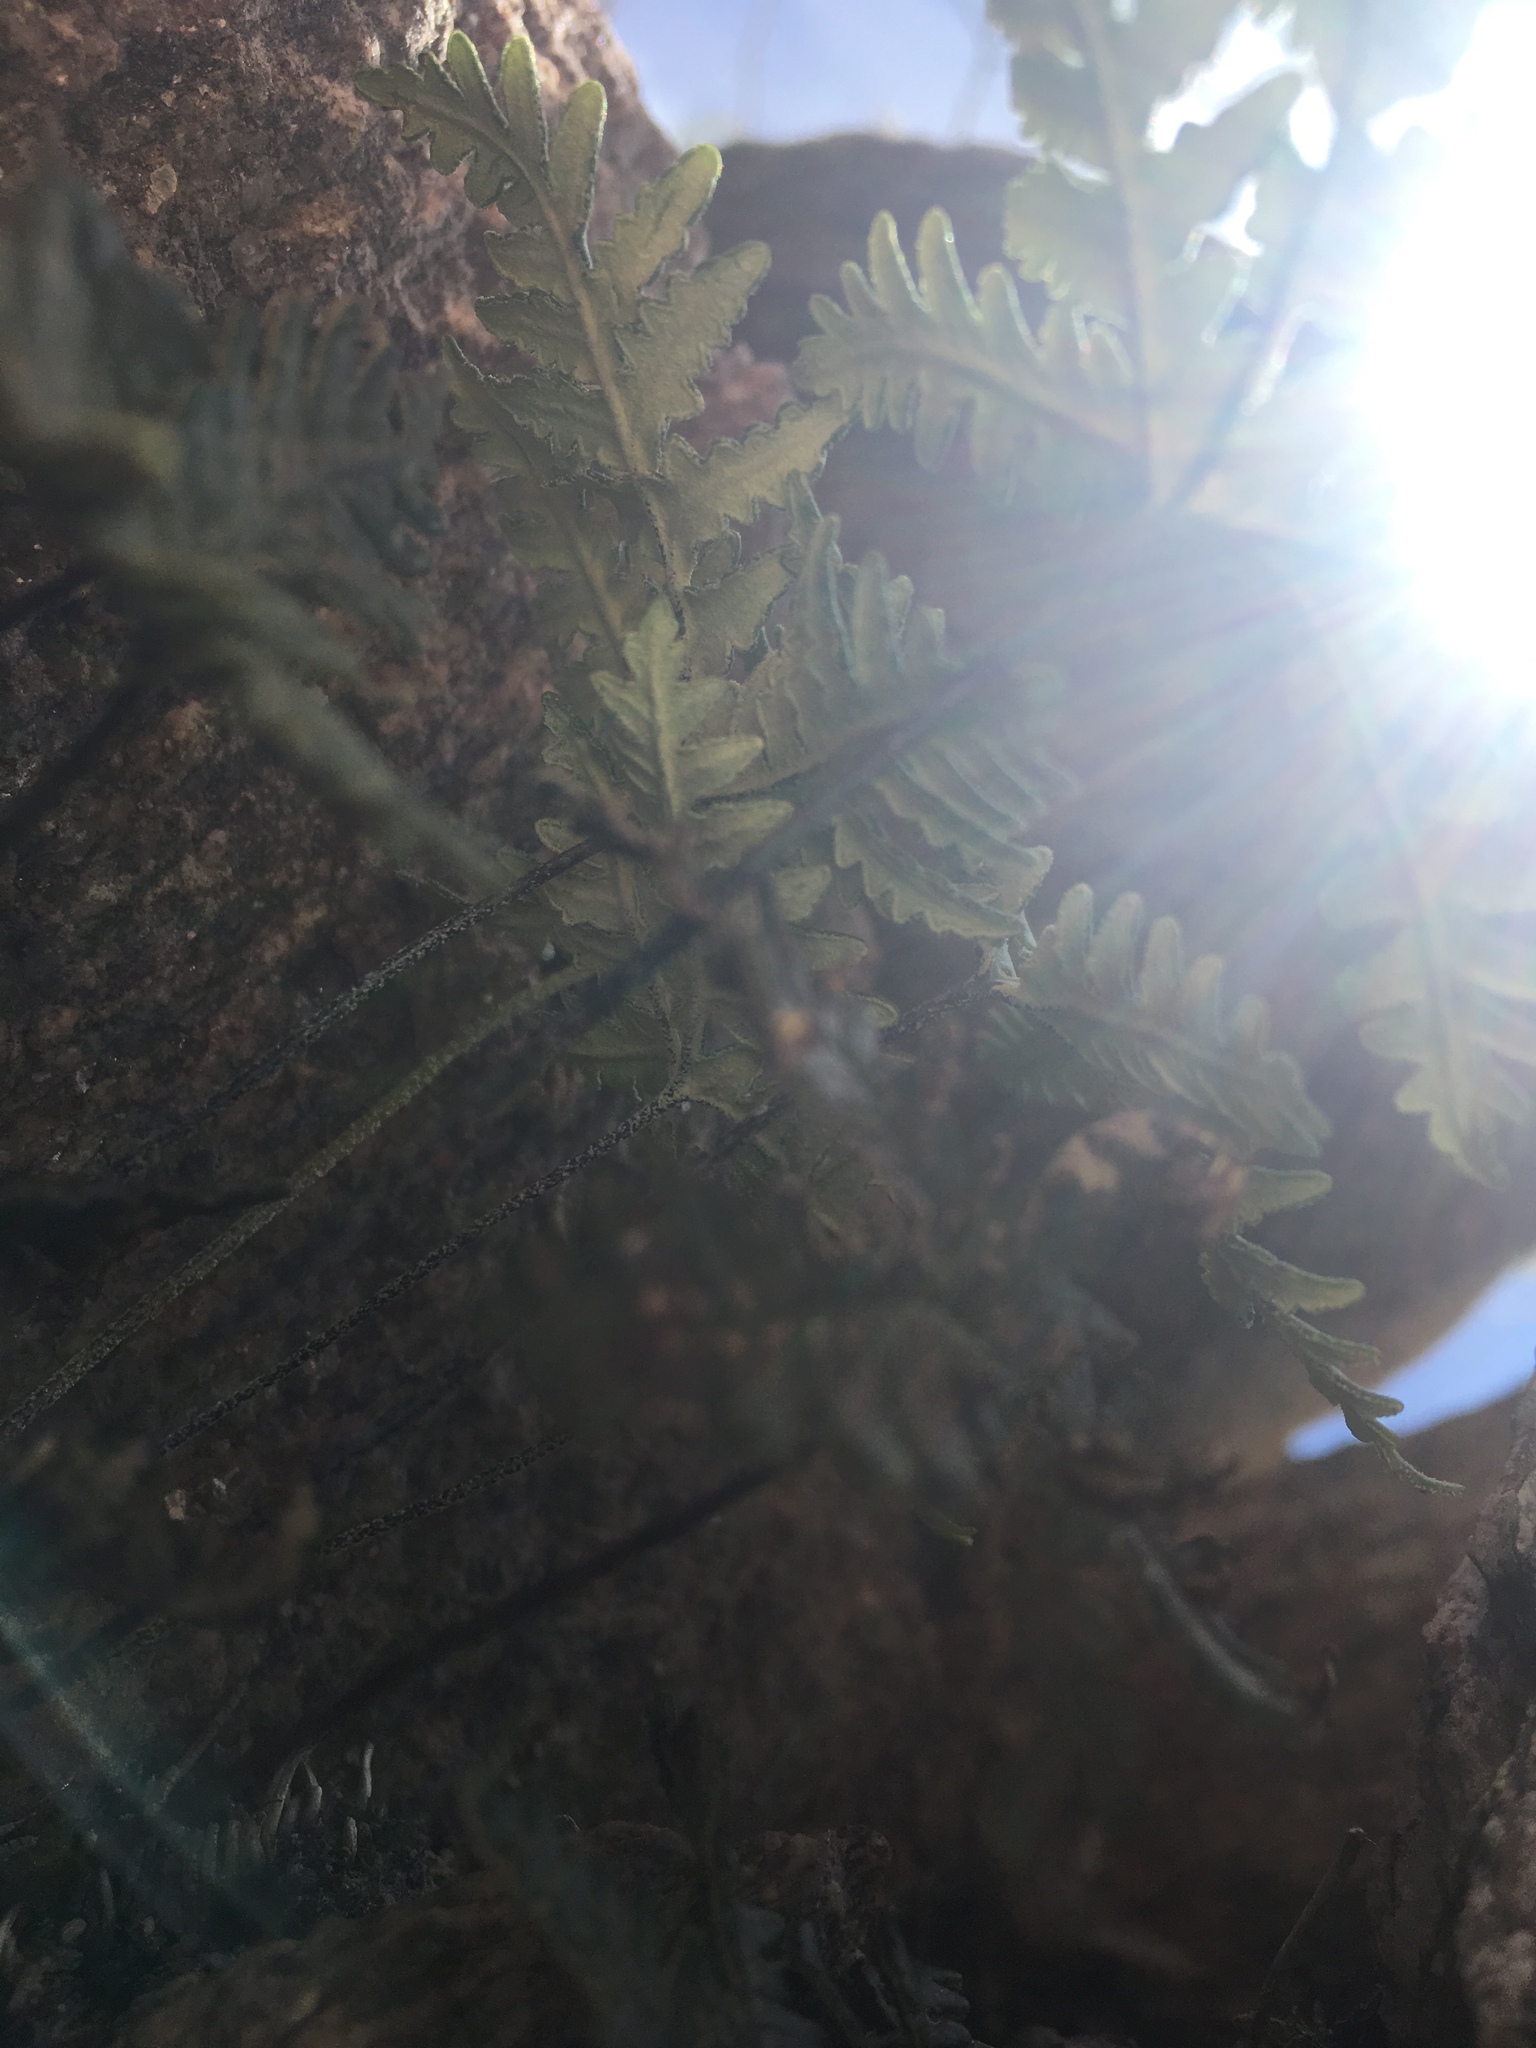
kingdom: Plantae
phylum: Tracheophyta
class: Polypodiopsida
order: Polypodiales
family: Pteridaceae
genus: Notholaena
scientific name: Notholaena standleyi
